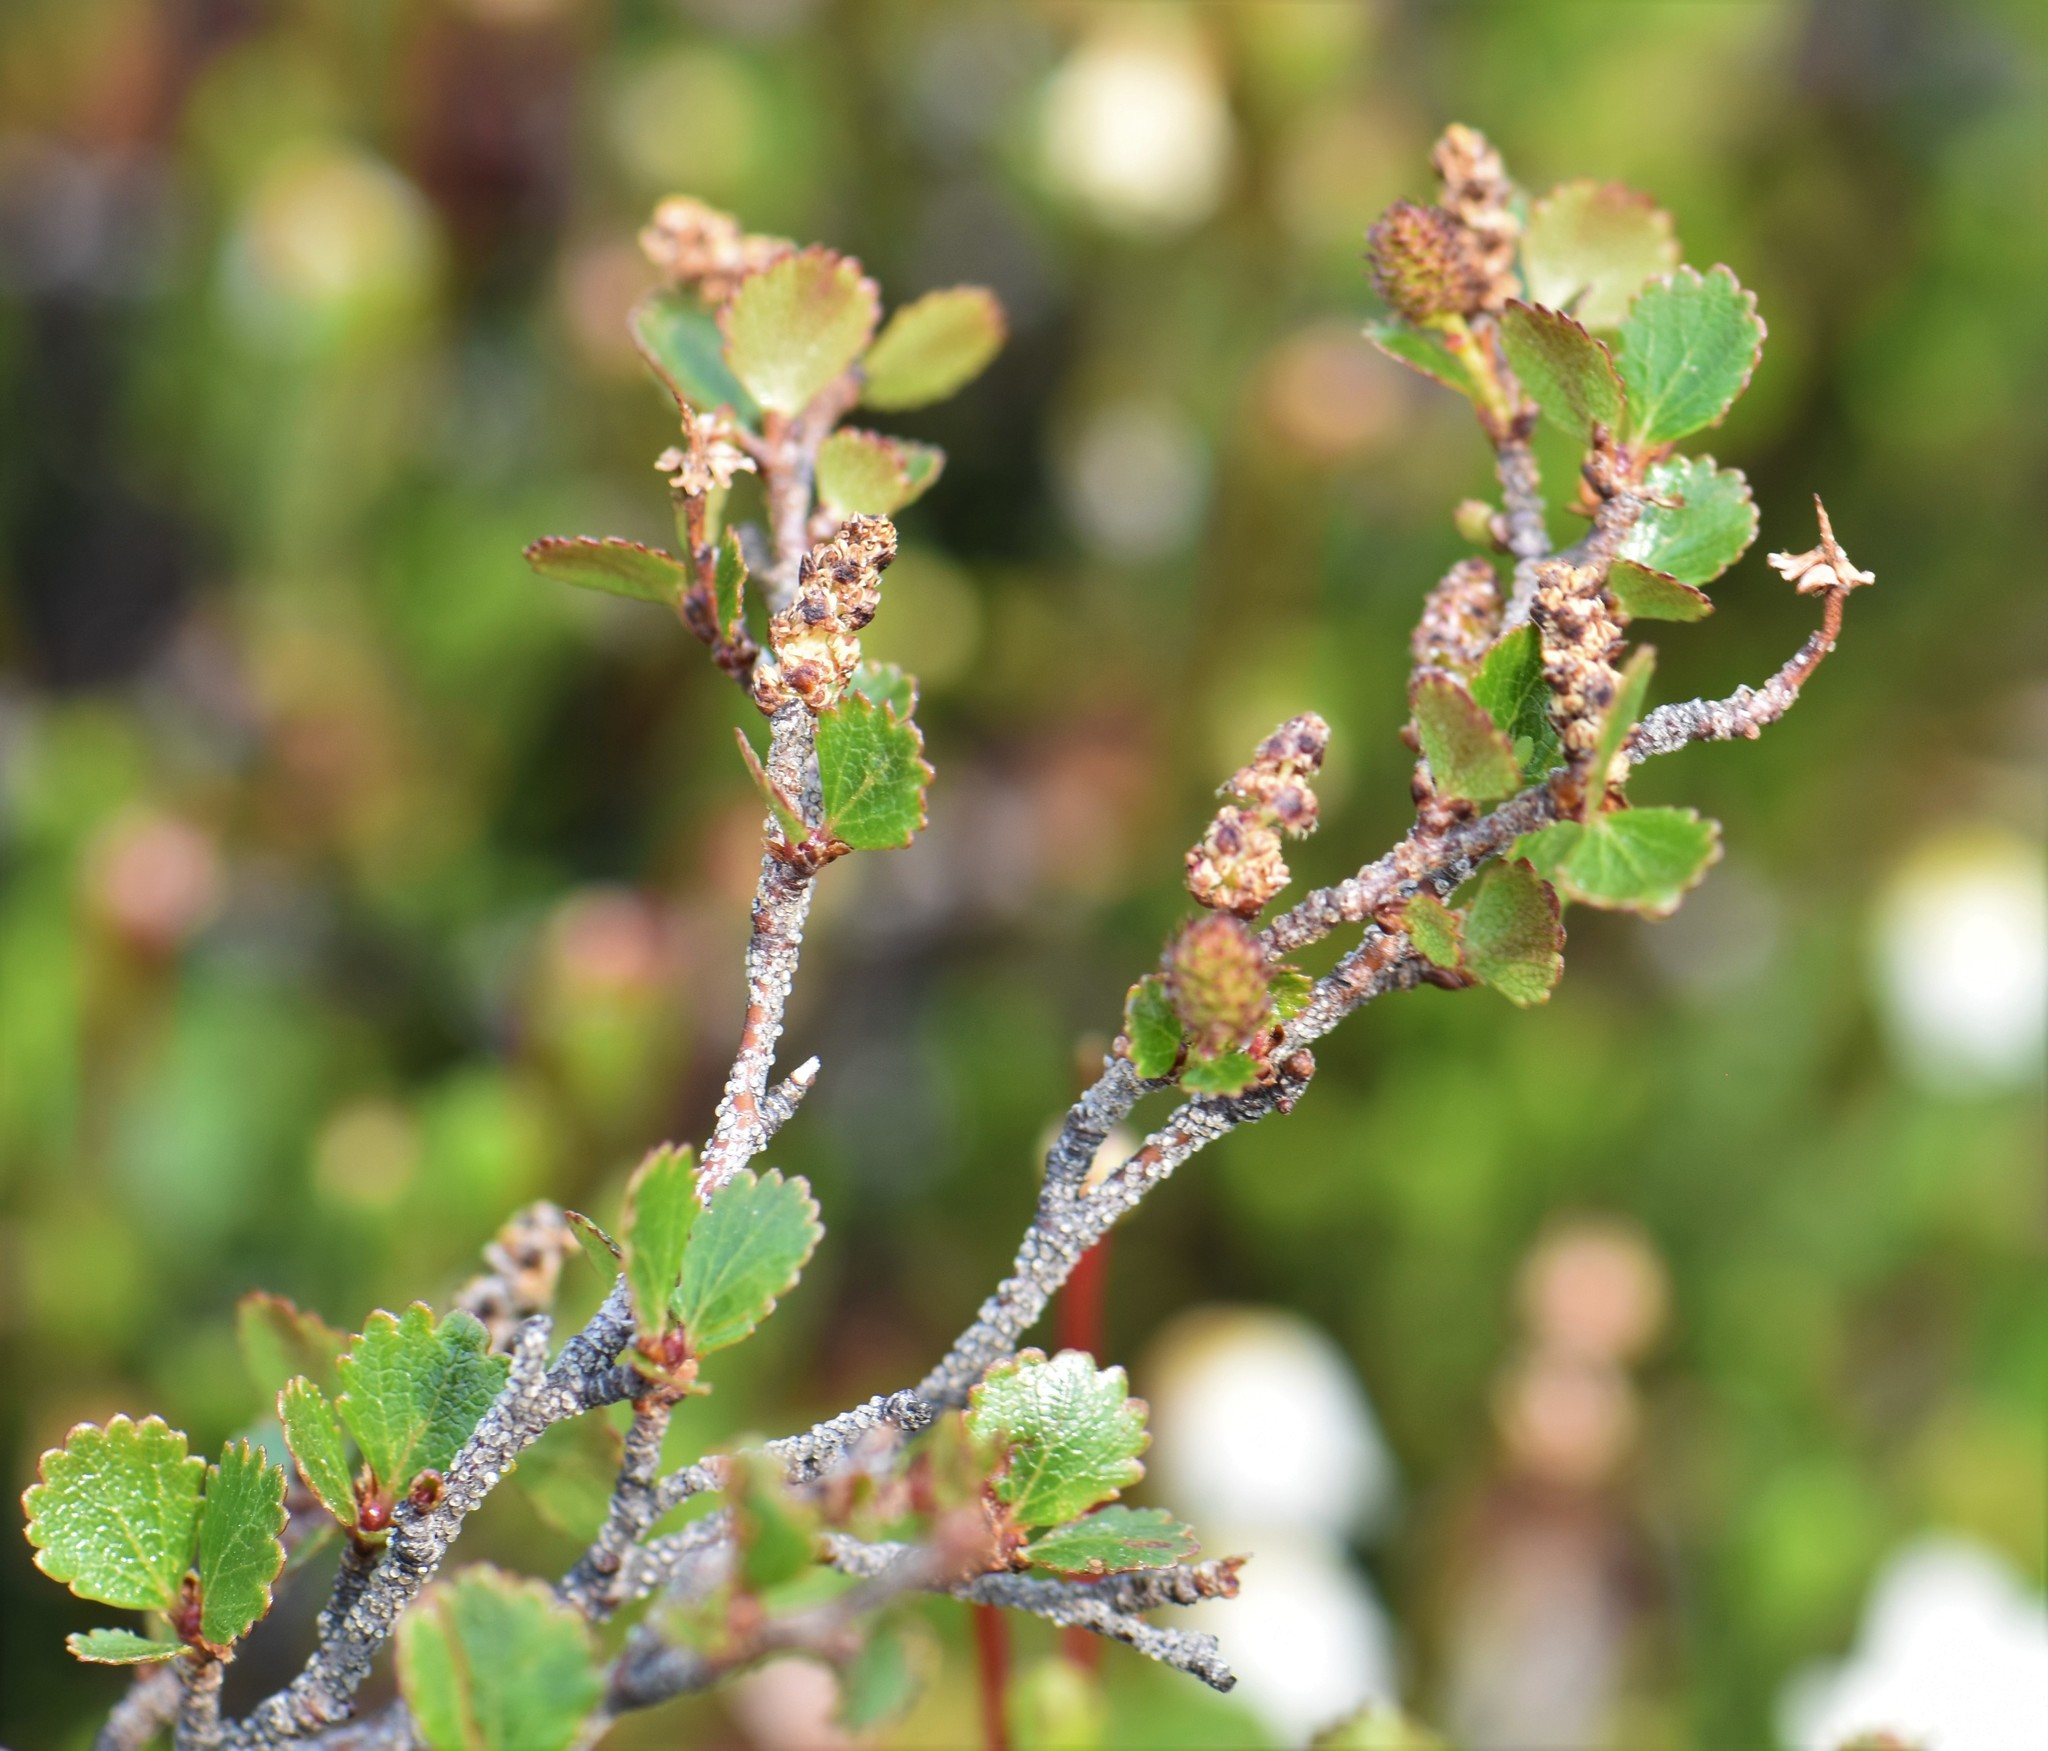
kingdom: Plantae
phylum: Tracheophyta
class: Magnoliopsida
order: Fagales
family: Betulaceae
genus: Betula
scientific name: Betula glandulosa
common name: Dwarf birch
